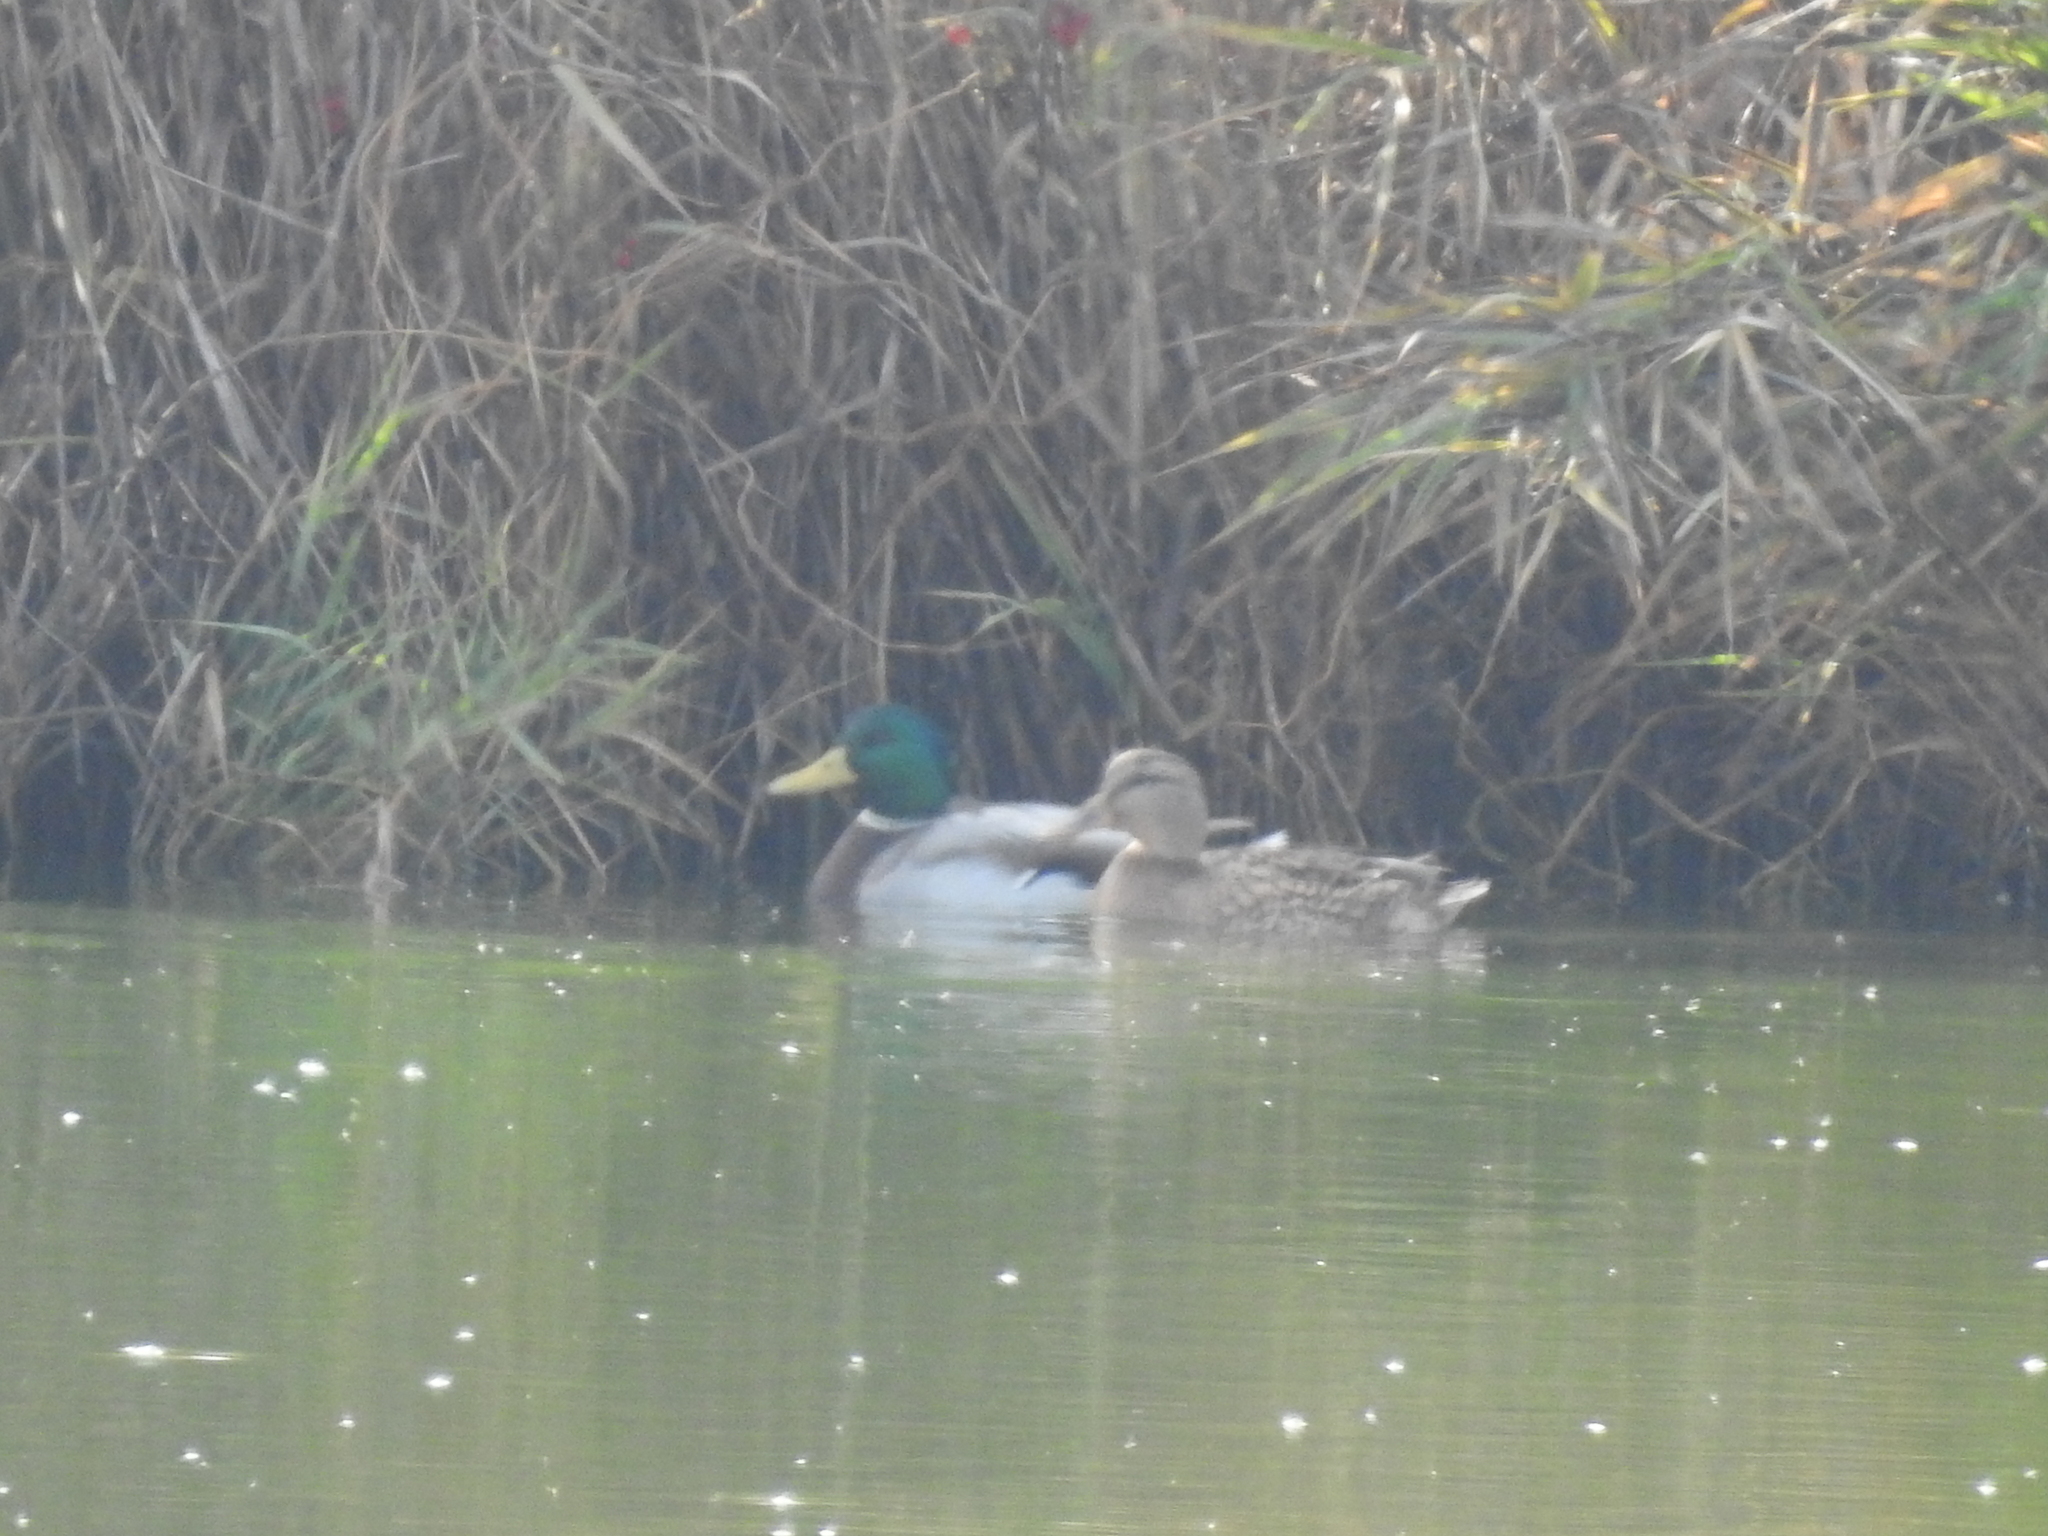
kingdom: Animalia
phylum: Chordata
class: Aves
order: Anseriformes
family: Anatidae
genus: Anas
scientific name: Anas platyrhynchos
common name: Mallard
